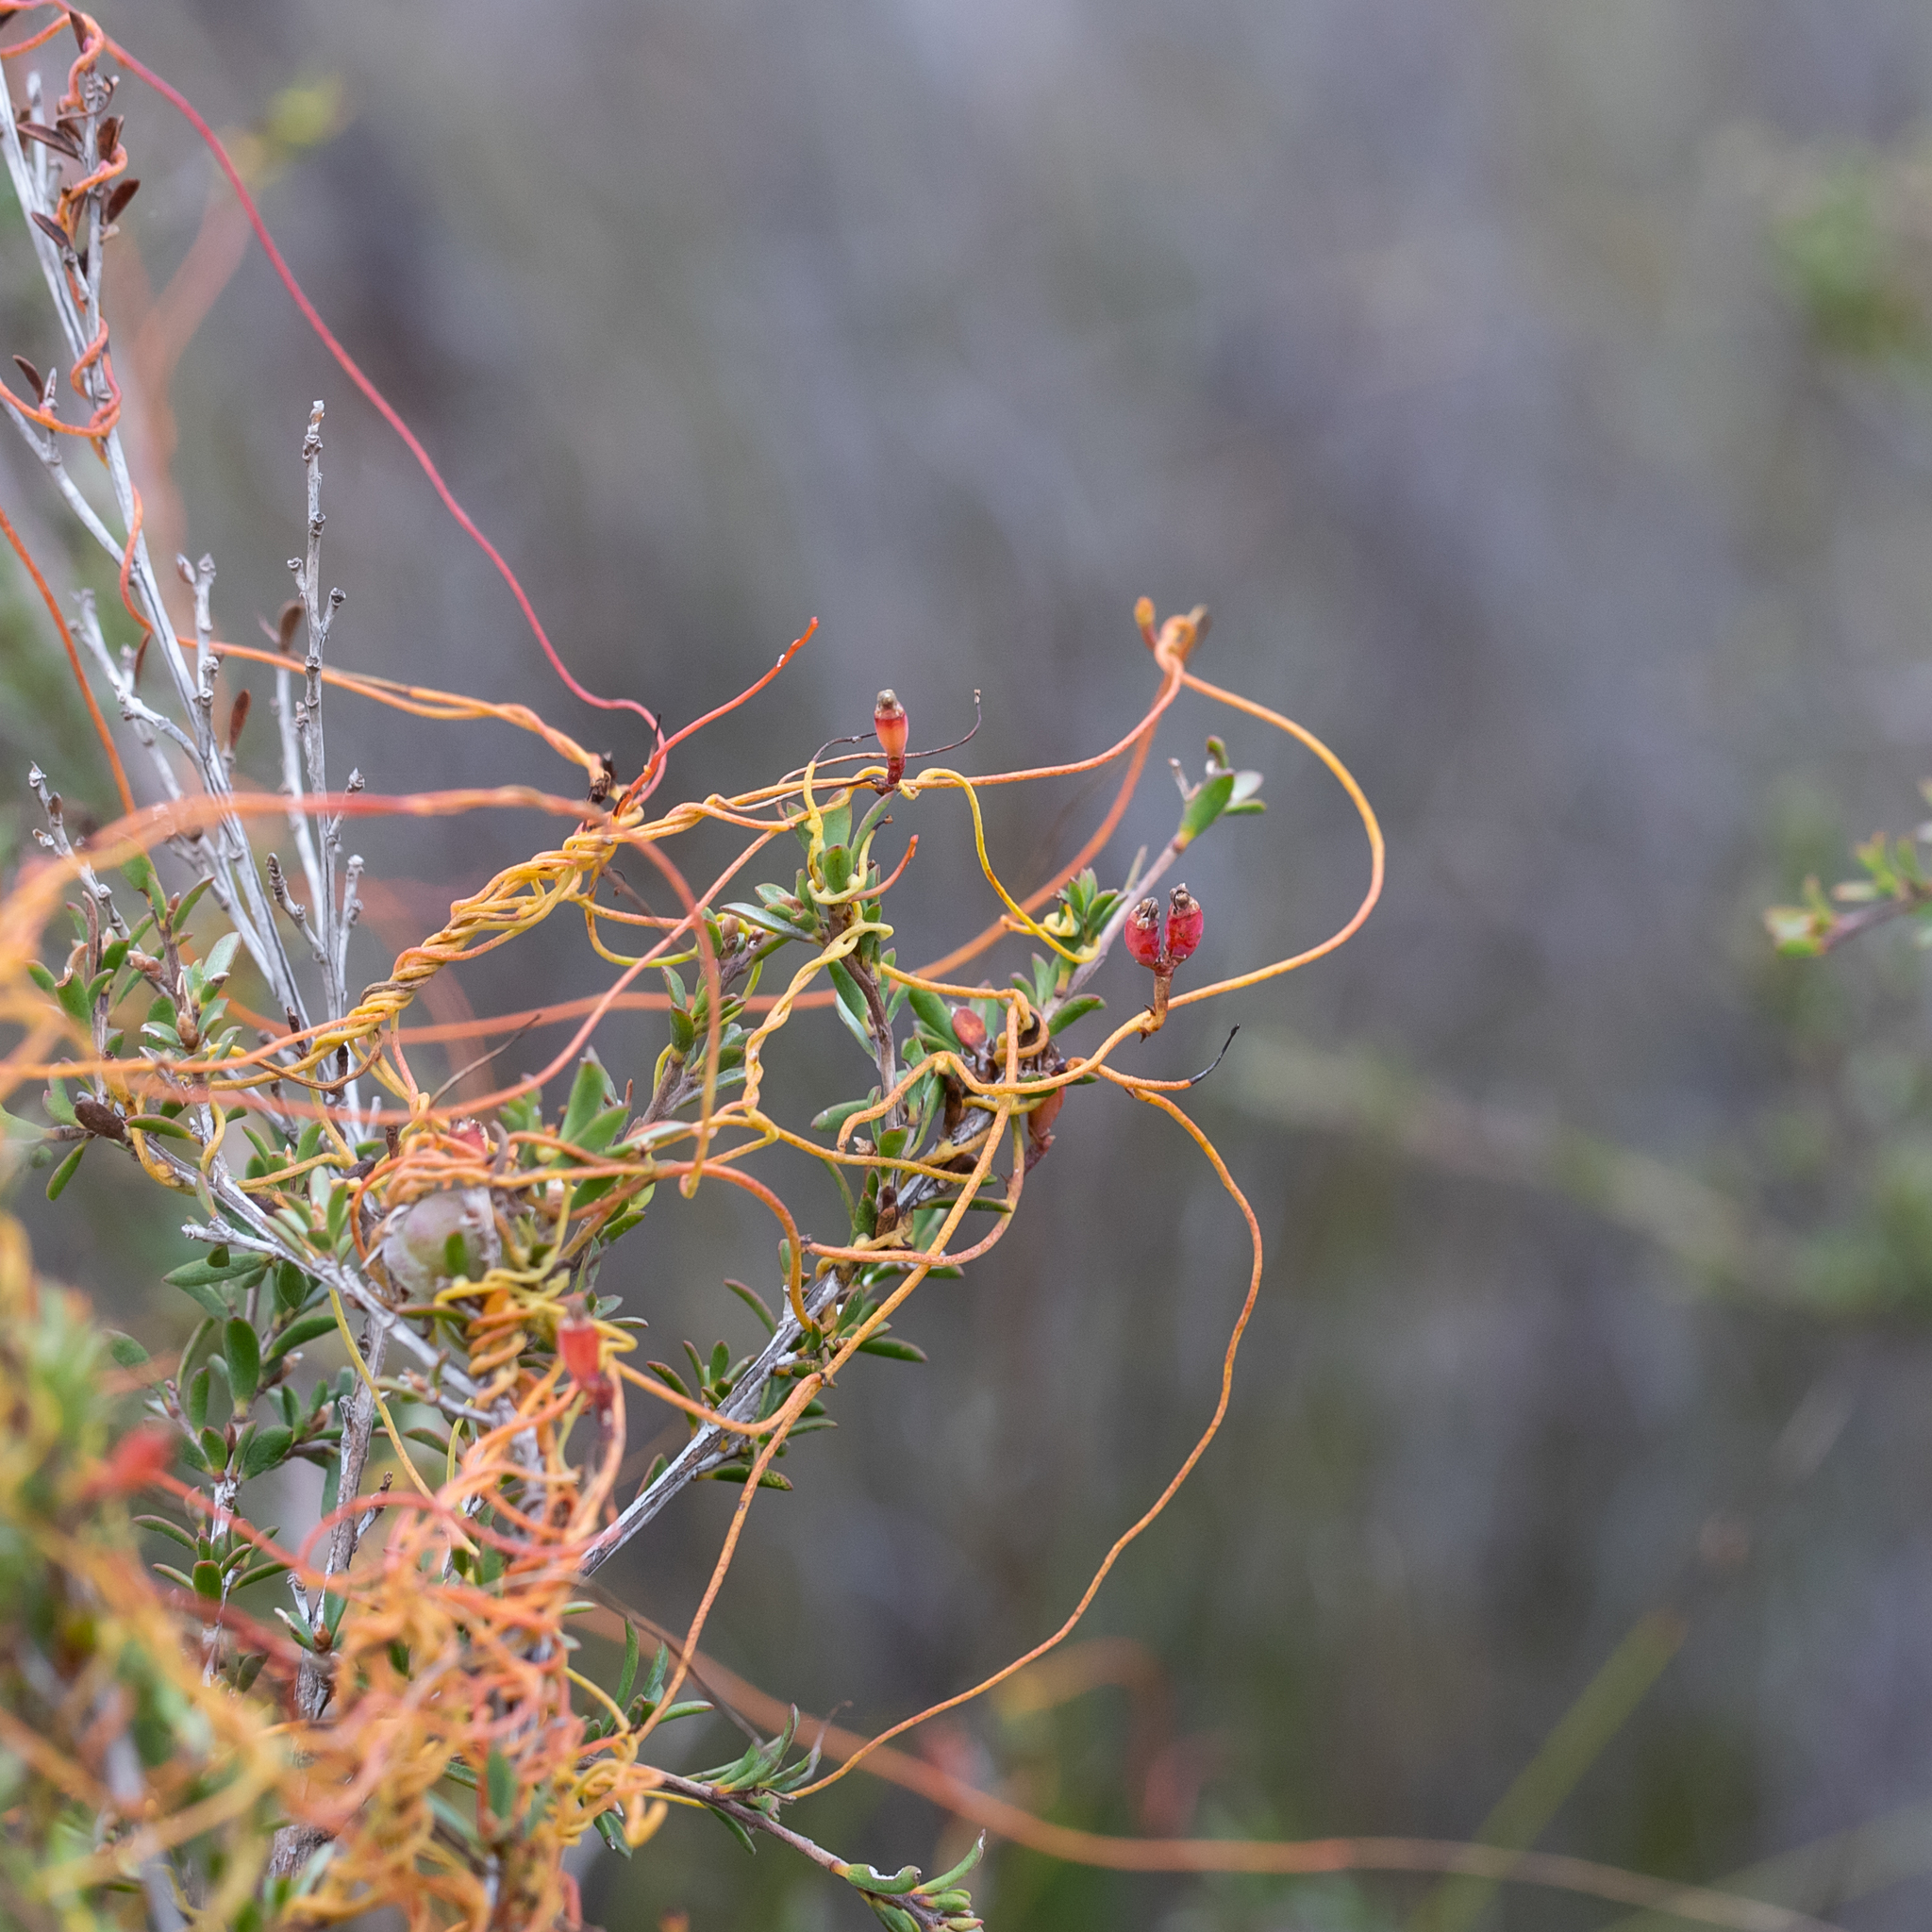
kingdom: Plantae
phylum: Tracheophyta
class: Magnoliopsida
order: Laurales
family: Lauraceae
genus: Cassytha
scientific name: Cassytha glabella
